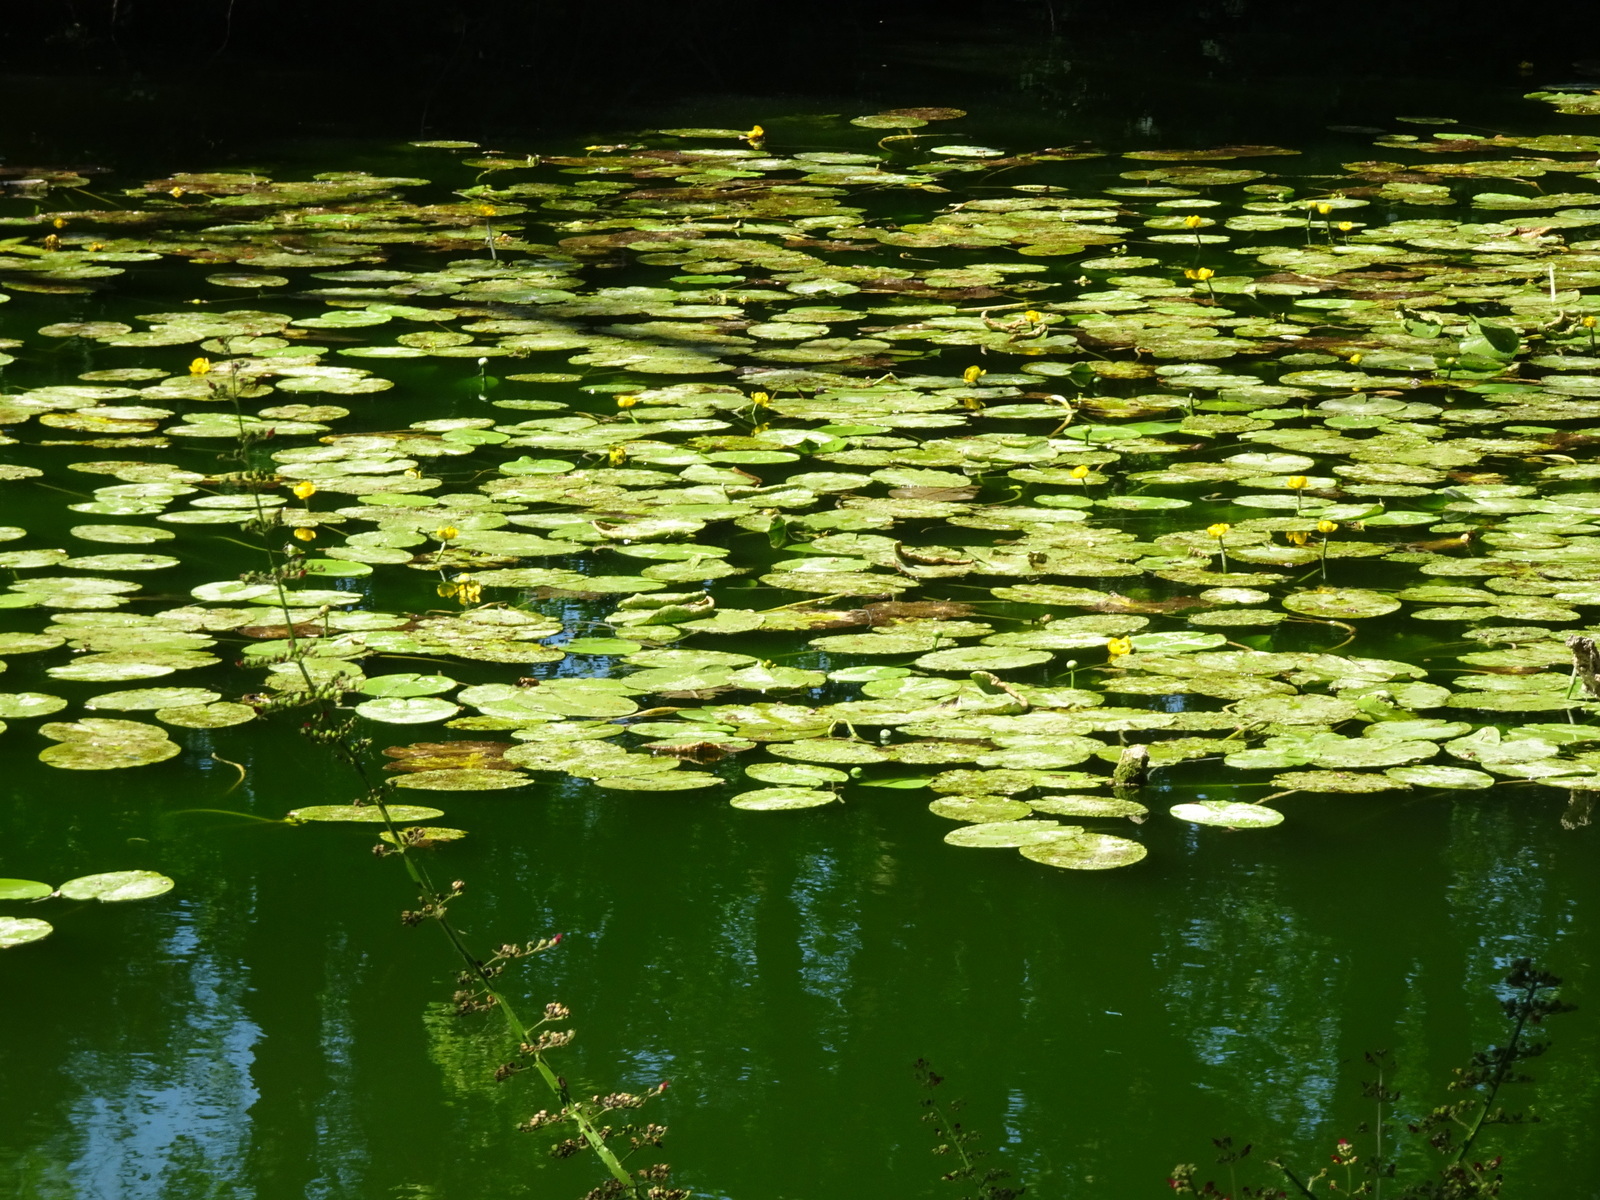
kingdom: Plantae
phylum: Tracheophyta
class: Magnoliopsida
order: Nymphaeales
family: Nymphaeaceae
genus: Nuphar
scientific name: Nuphar lutea
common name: Yellow water-lily
